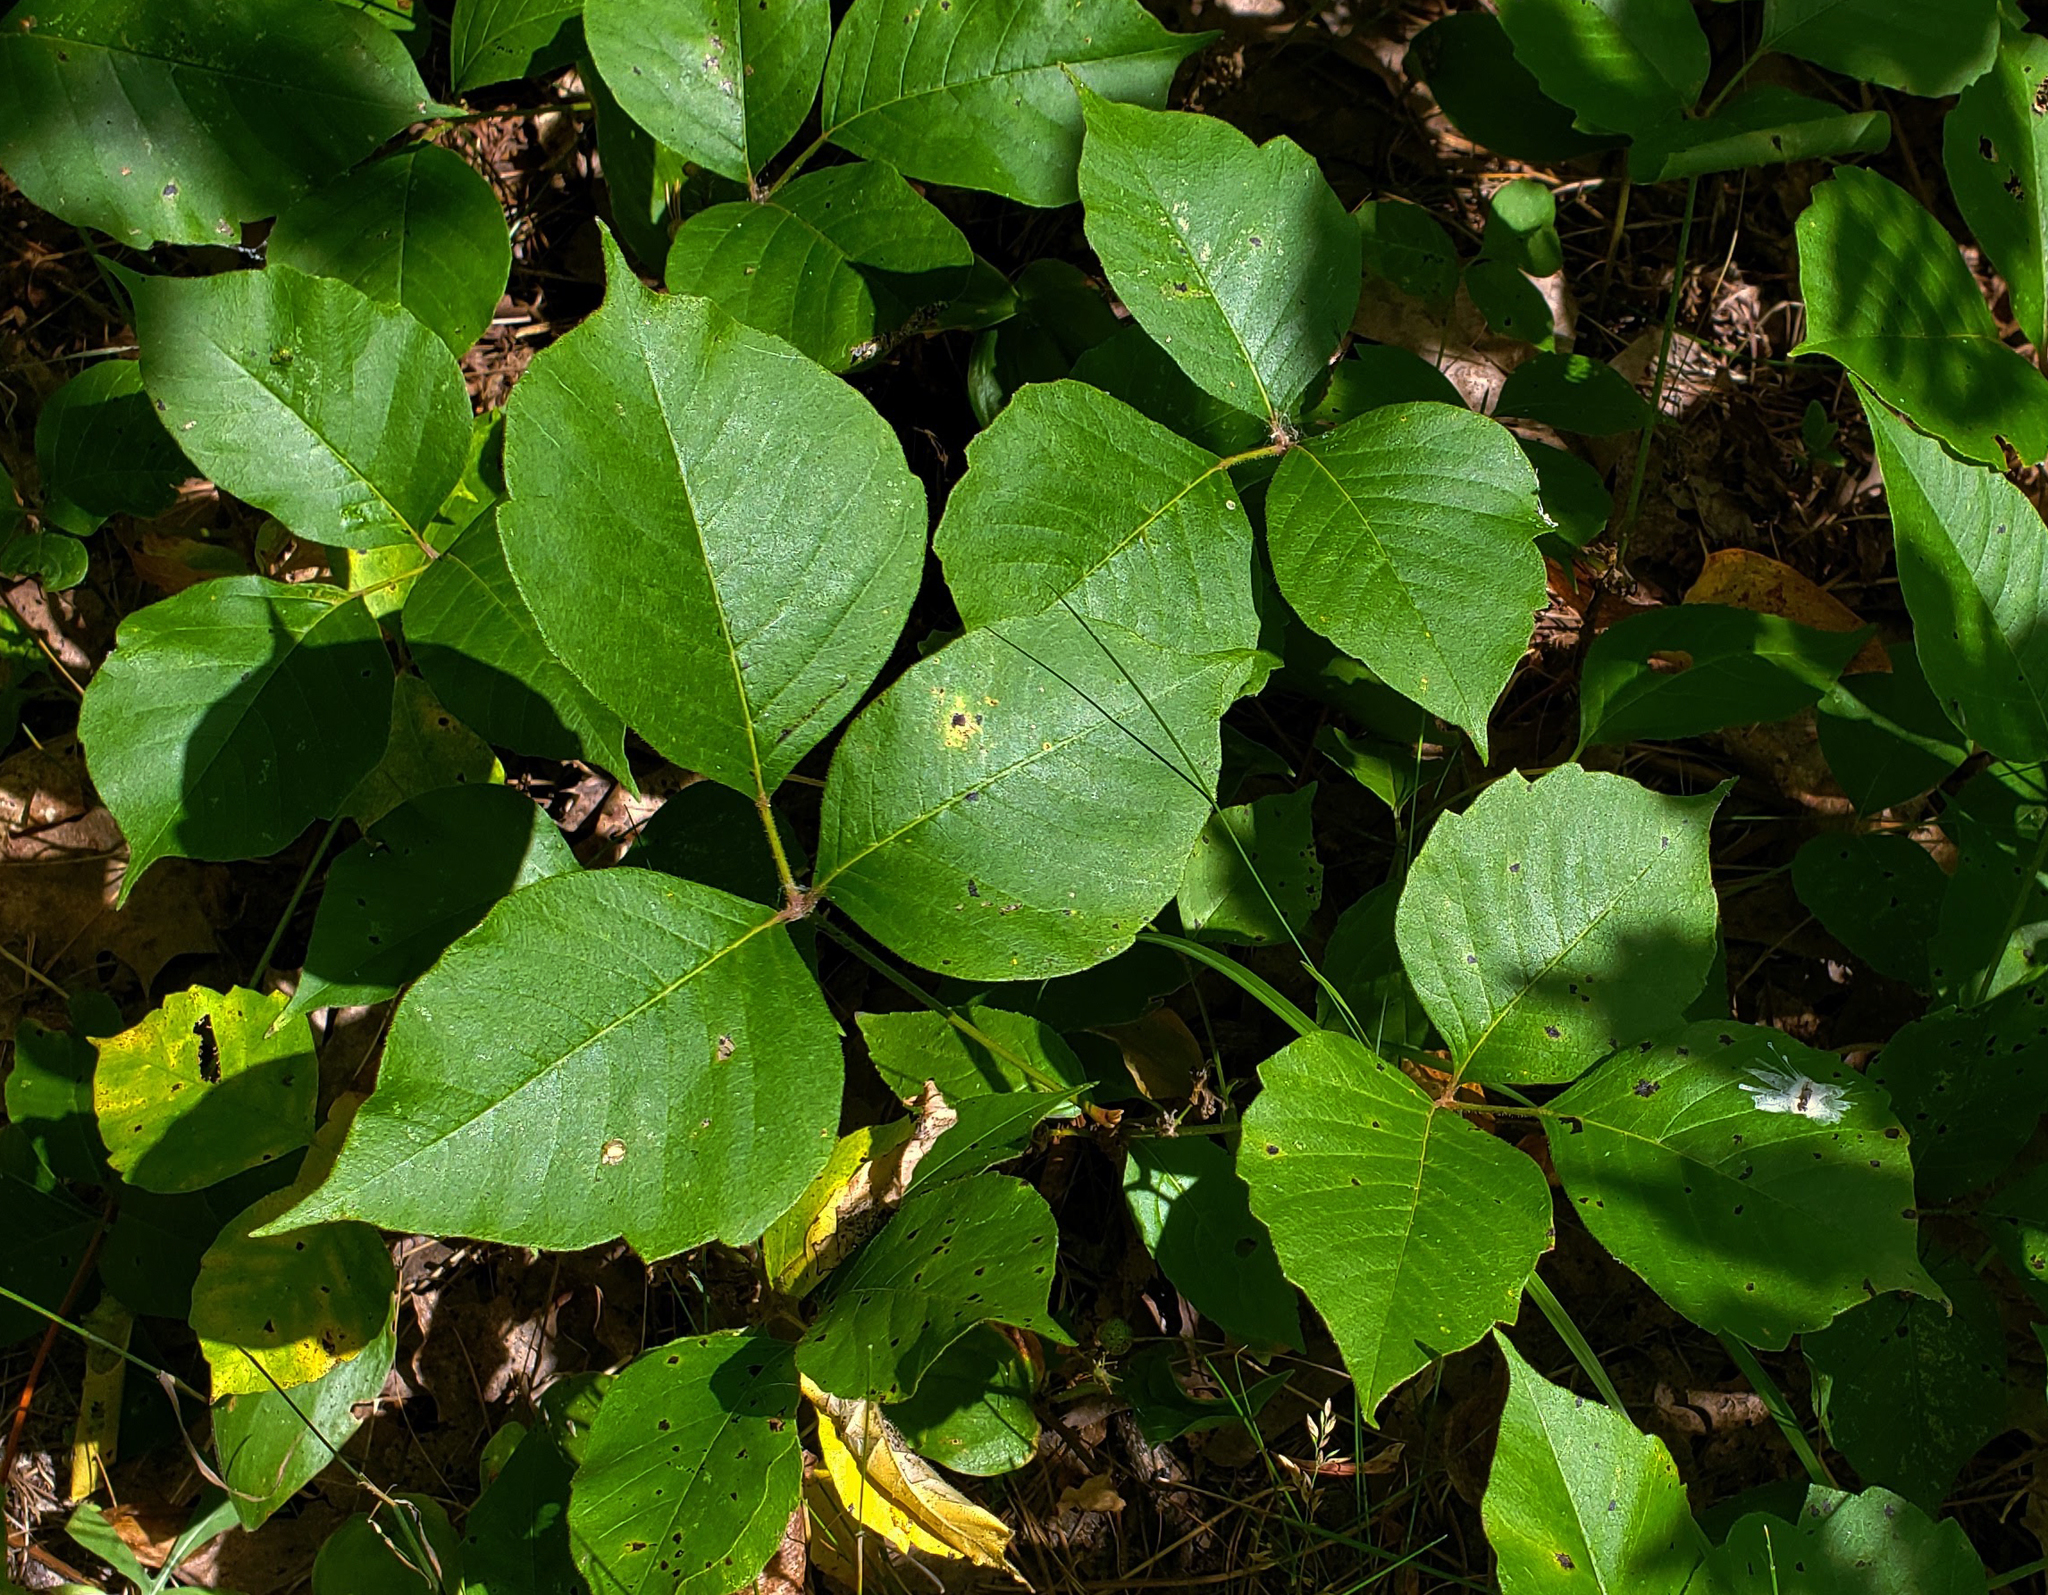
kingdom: Plantae
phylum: Tracheophyta
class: Magnoliopsida
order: Sapindales
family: Anacardiaceae
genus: Toxicodendron
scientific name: Toxicodendron rydbergii
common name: Rydberg's poison-ivy
